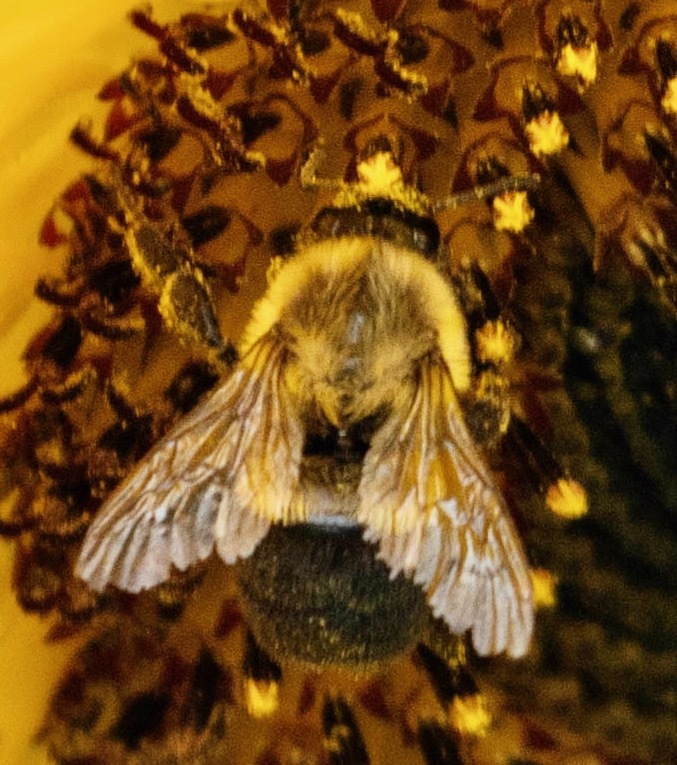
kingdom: Animalia
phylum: Arthropoda
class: Insecta
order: Hymenoptera
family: Apidae
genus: Bombus
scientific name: Bombus impatiens
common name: Common eastern bumble bee
